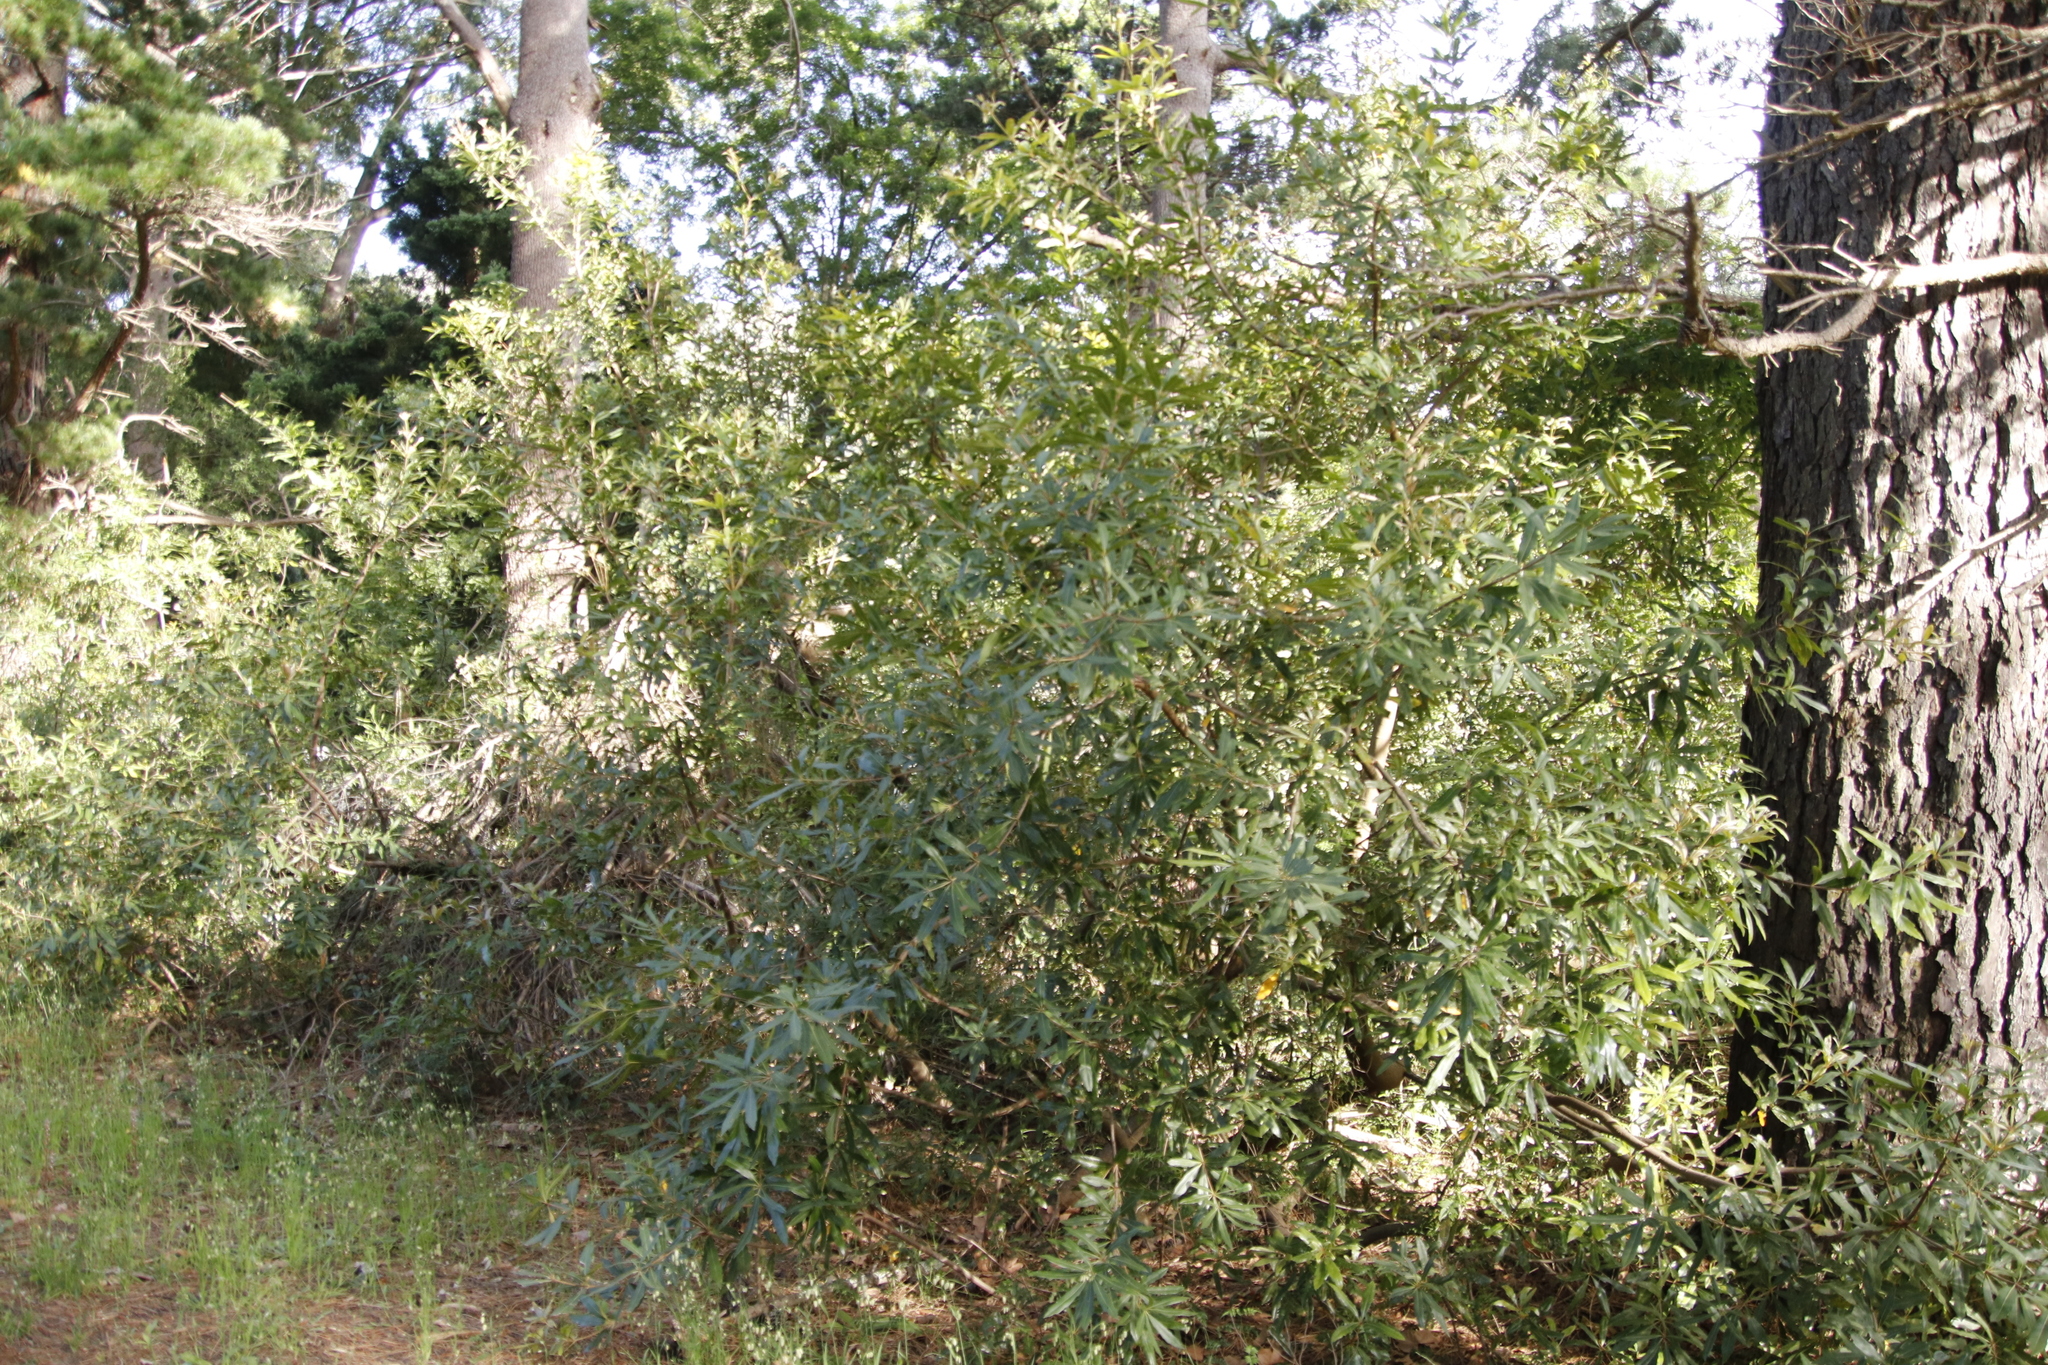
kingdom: Plantae
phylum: Tracheophyta
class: Magnoliopsida
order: Proteales
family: Proteaceae
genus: Brabejum
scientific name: Brabejum stellatifolium
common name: Wild almond
